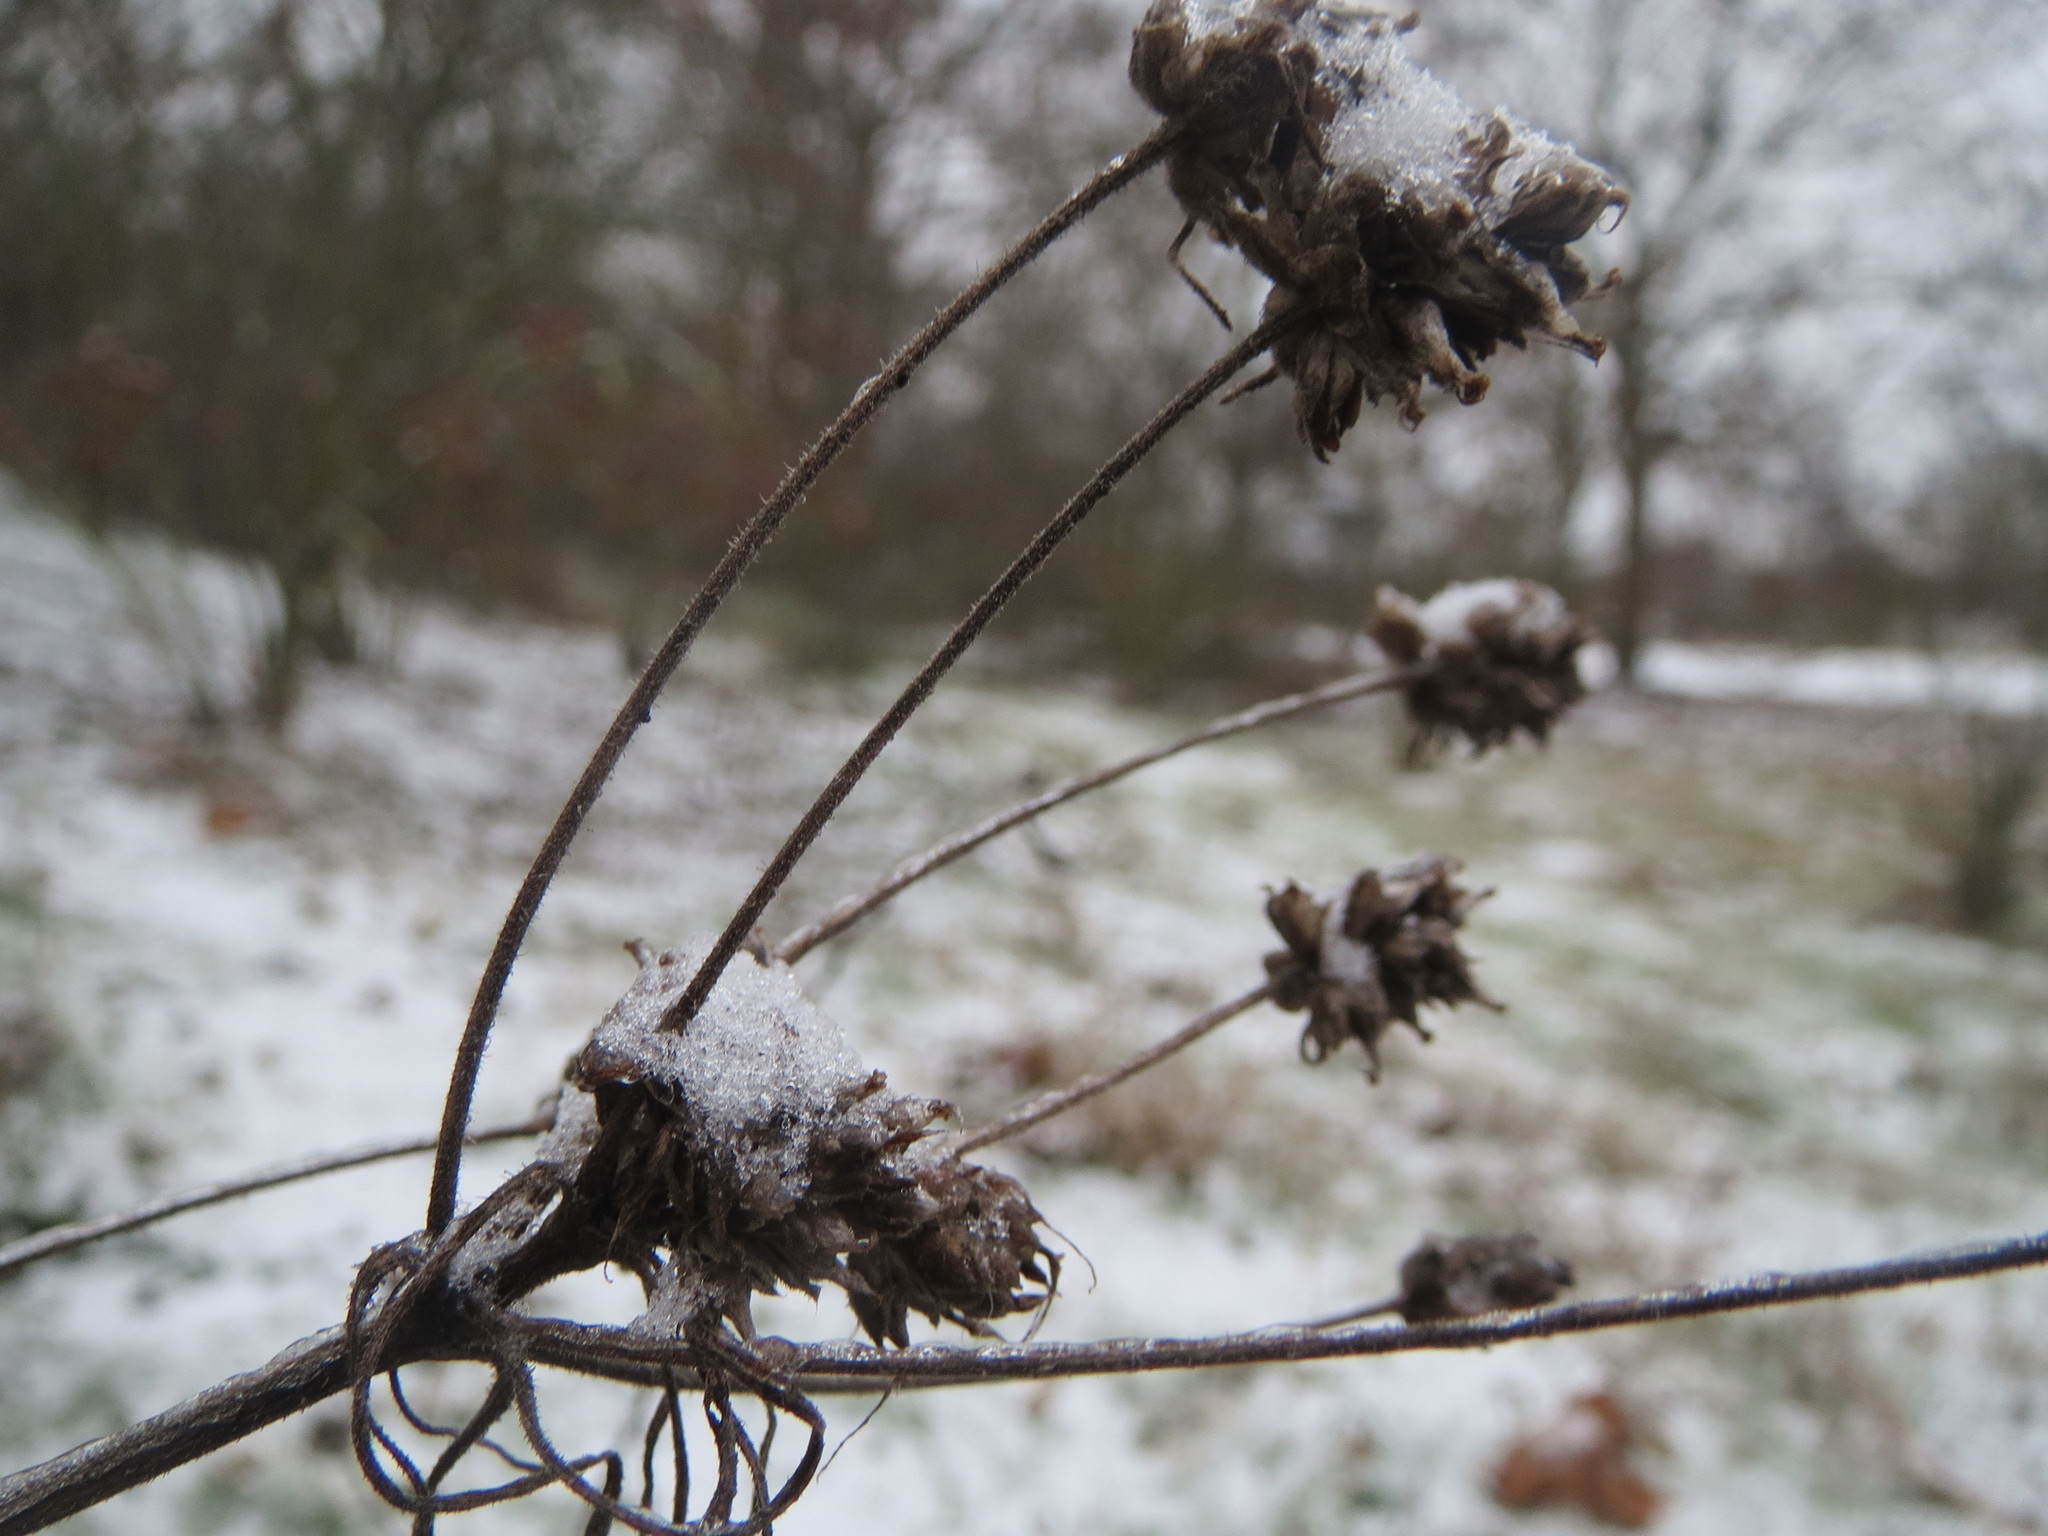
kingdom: Plantae
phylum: Tracheophyta
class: Magnoliopsida
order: Lamiales
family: Plantaginaceae
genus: Plantago
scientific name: Plantago arenaria
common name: Branched plantain
